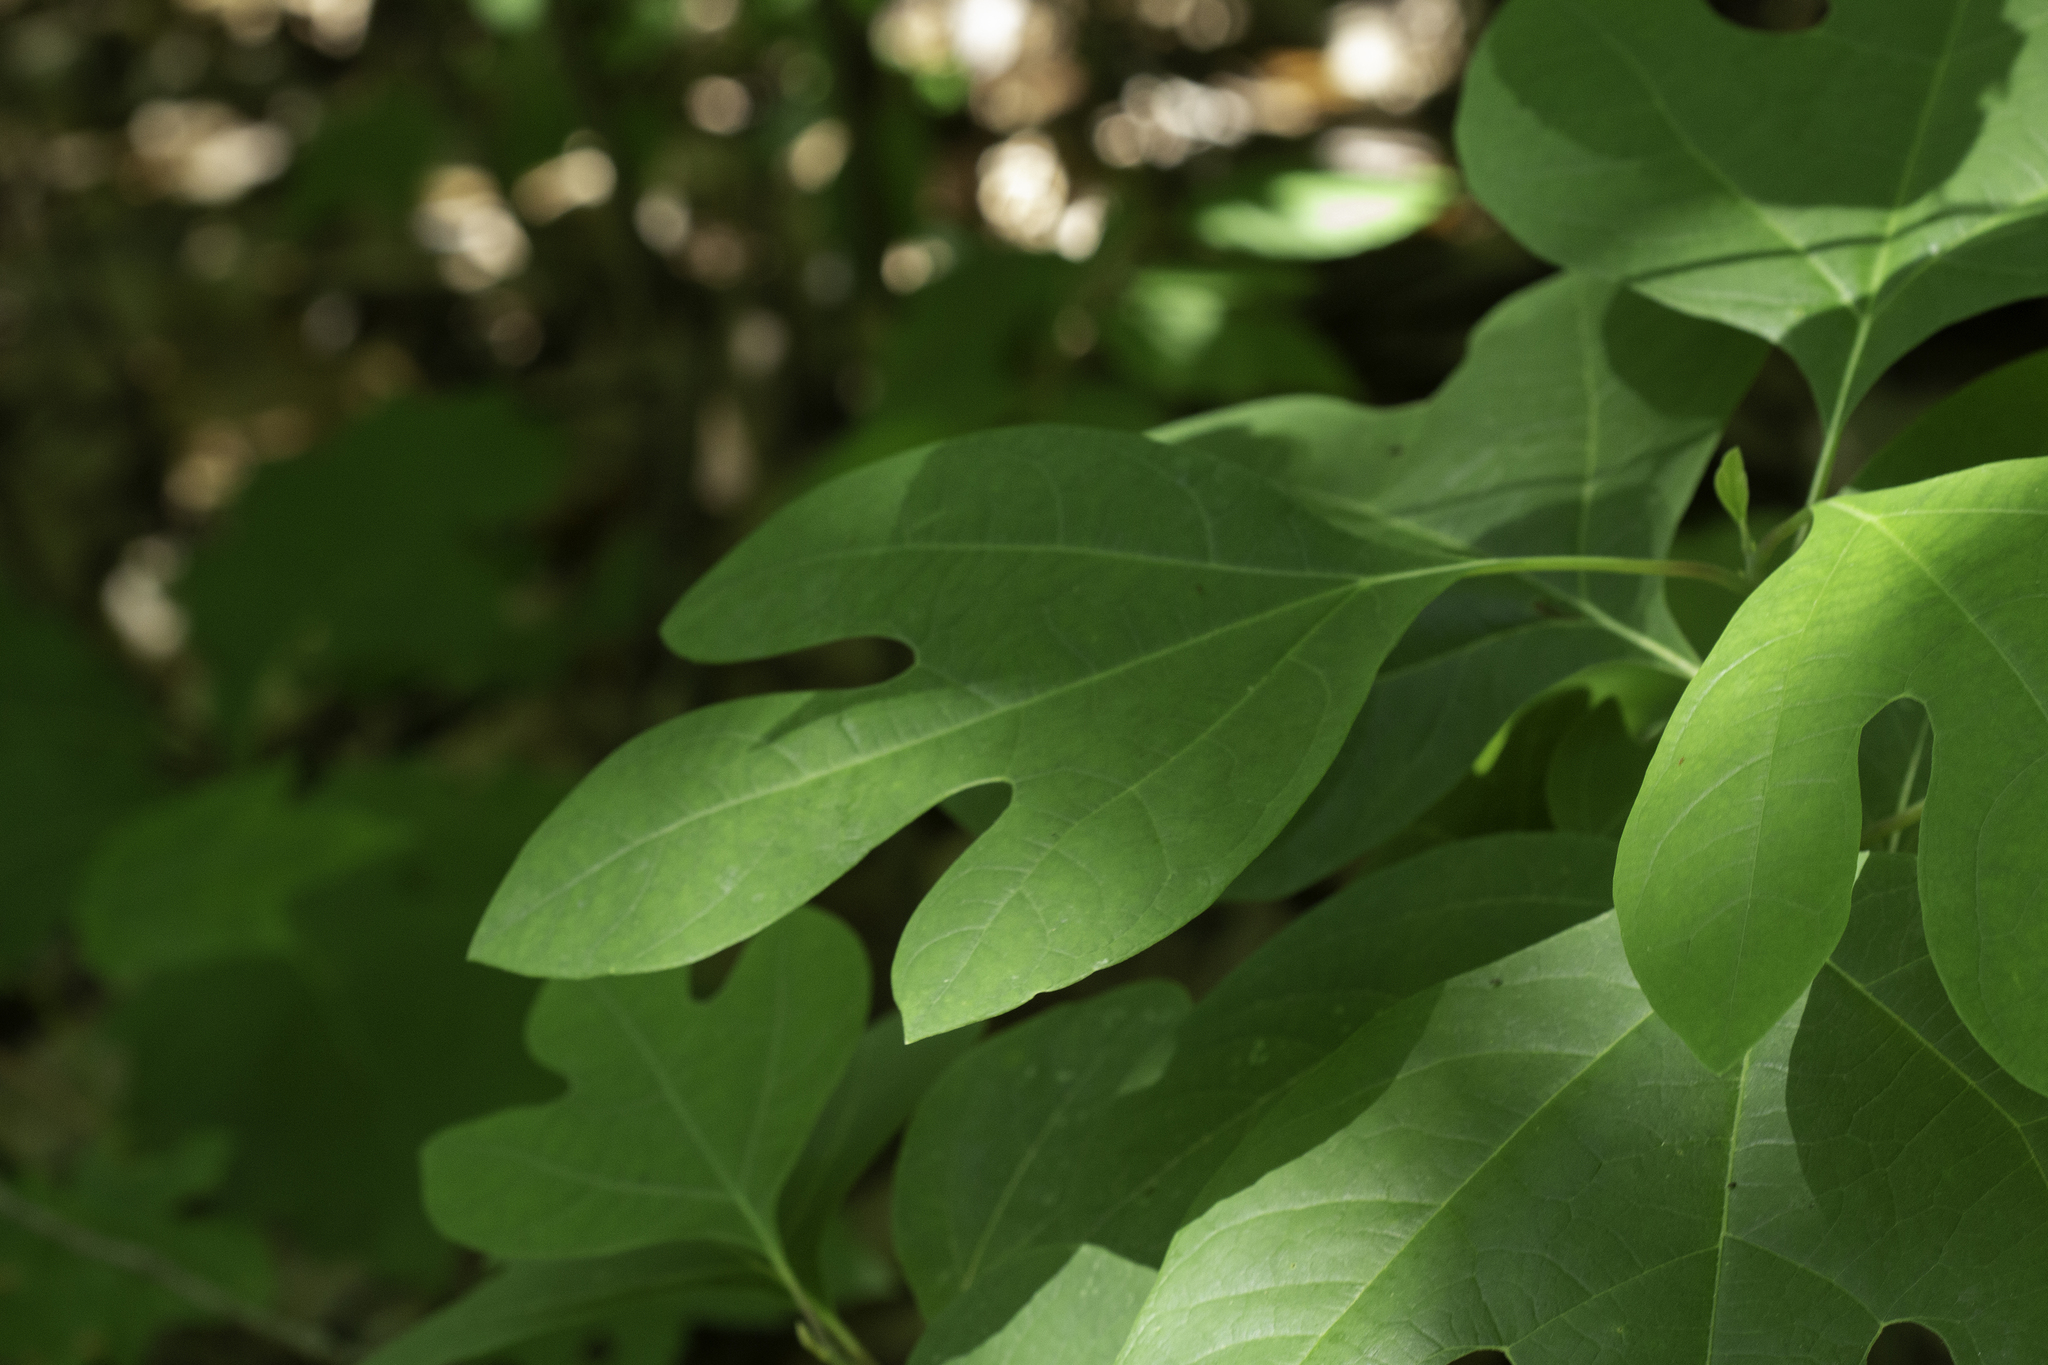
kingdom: Plantae
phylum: Tracheophyta
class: Magnoliopsida
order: Laurales
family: Lauraceae
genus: Sassafras
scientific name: Sassafras albidum
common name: Sassafras
